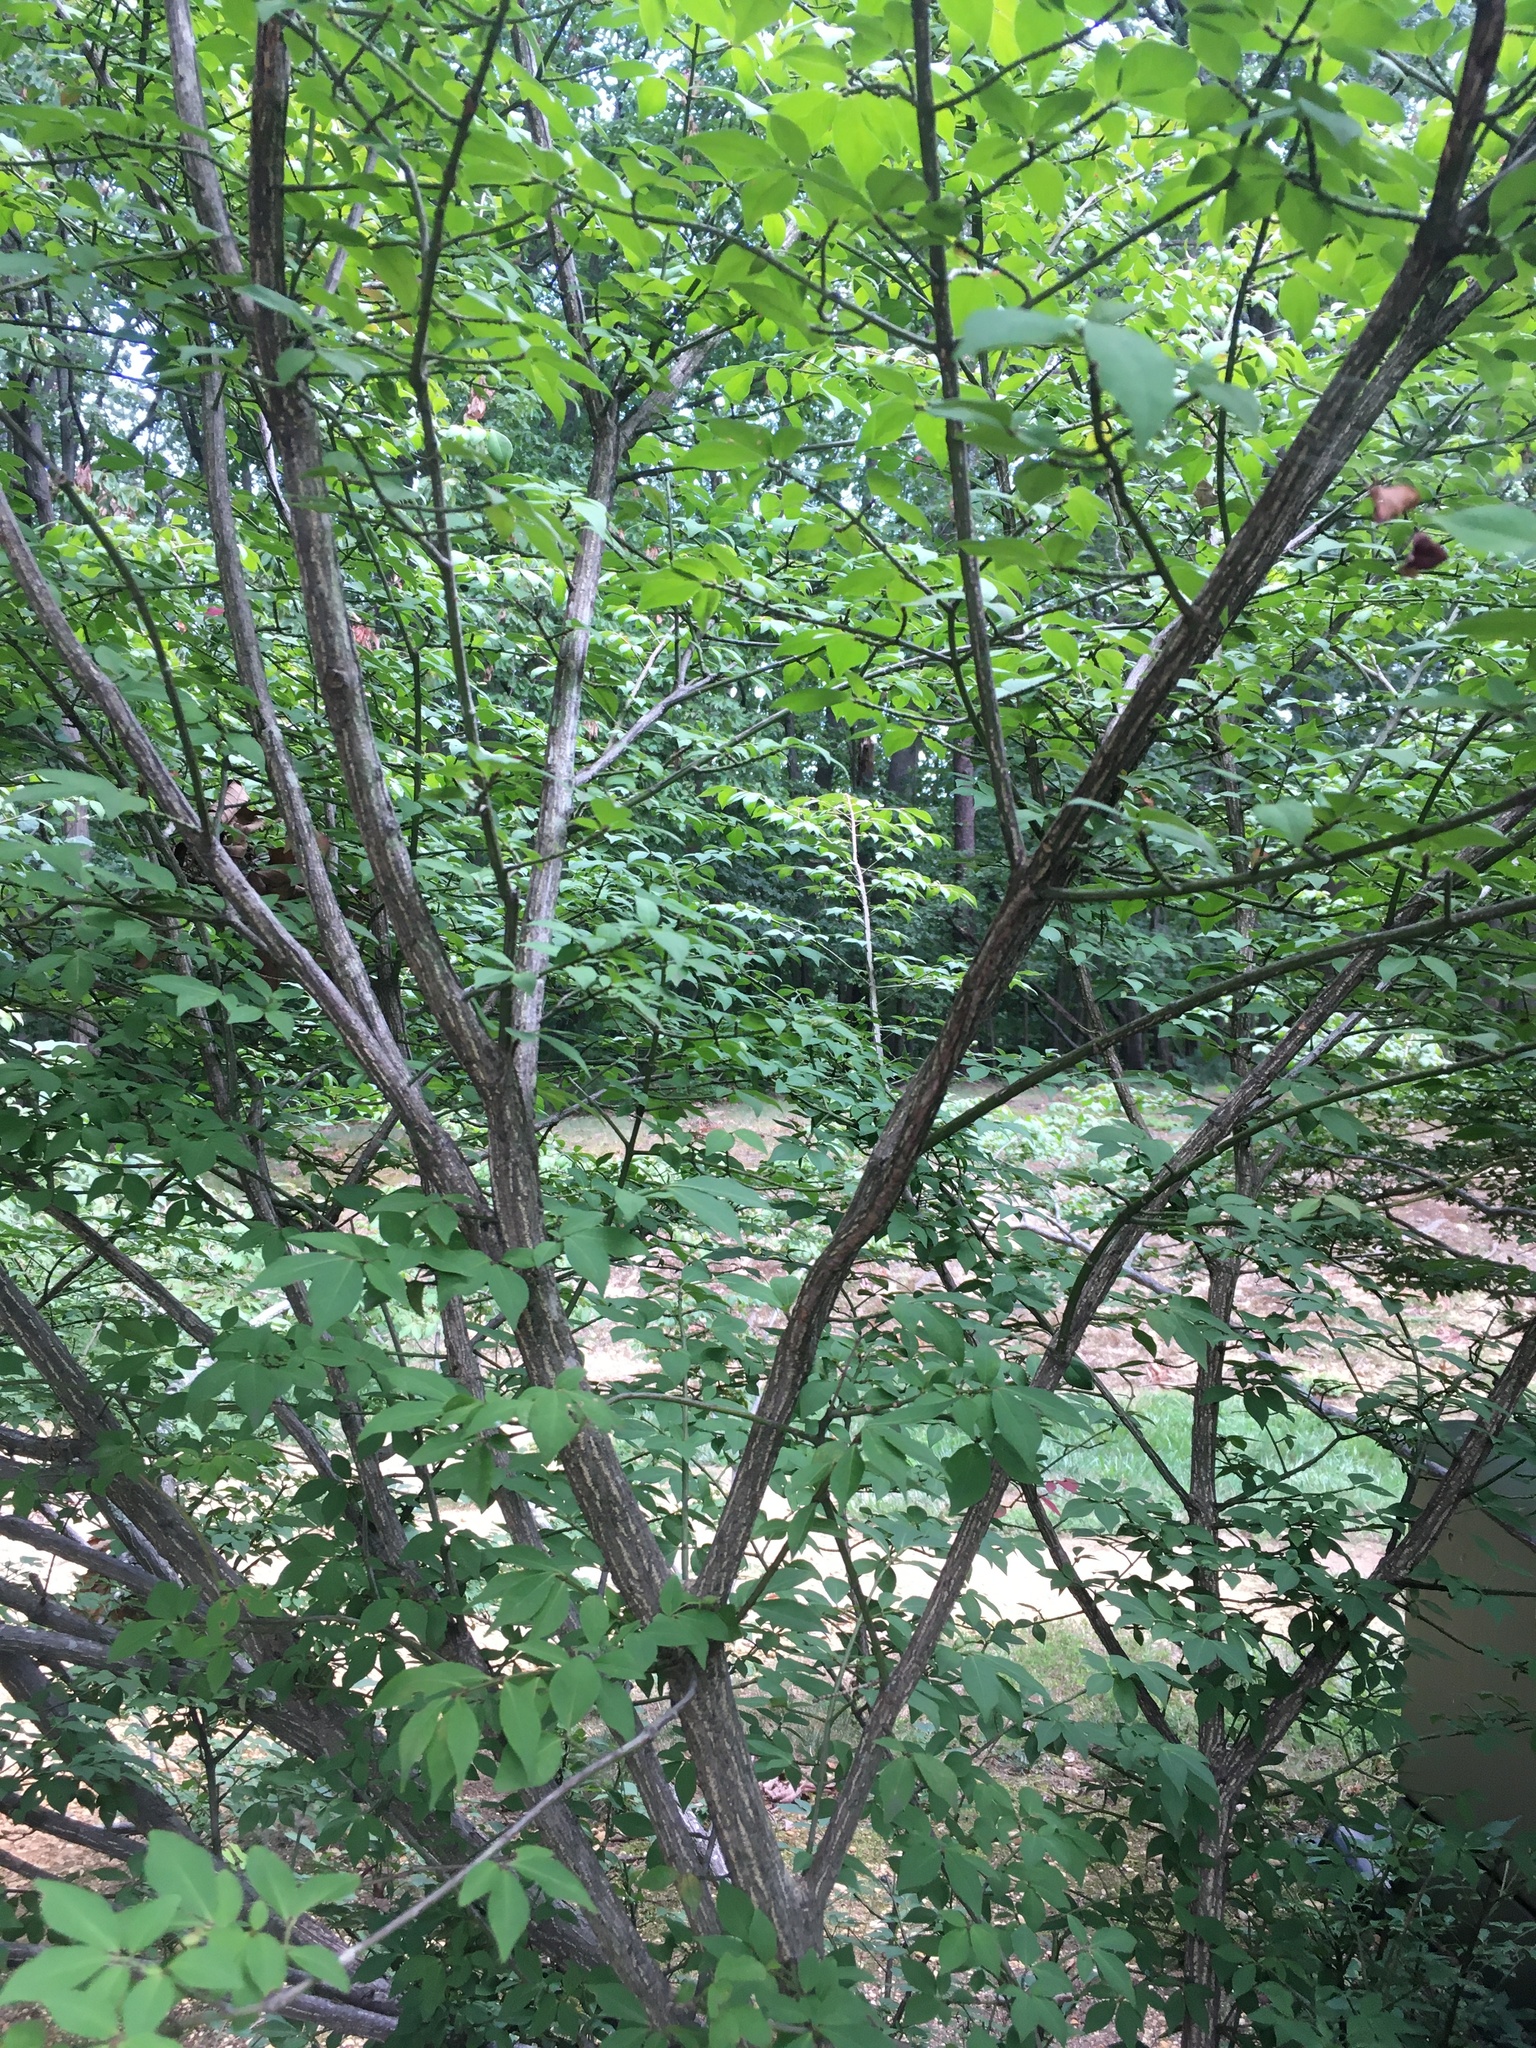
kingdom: Plantae
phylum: Tracheophyta
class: Magnoliopsida
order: Celastrales
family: Celastraceae
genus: Euonymus
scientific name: Euonymus alatus
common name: Winged euonymus
